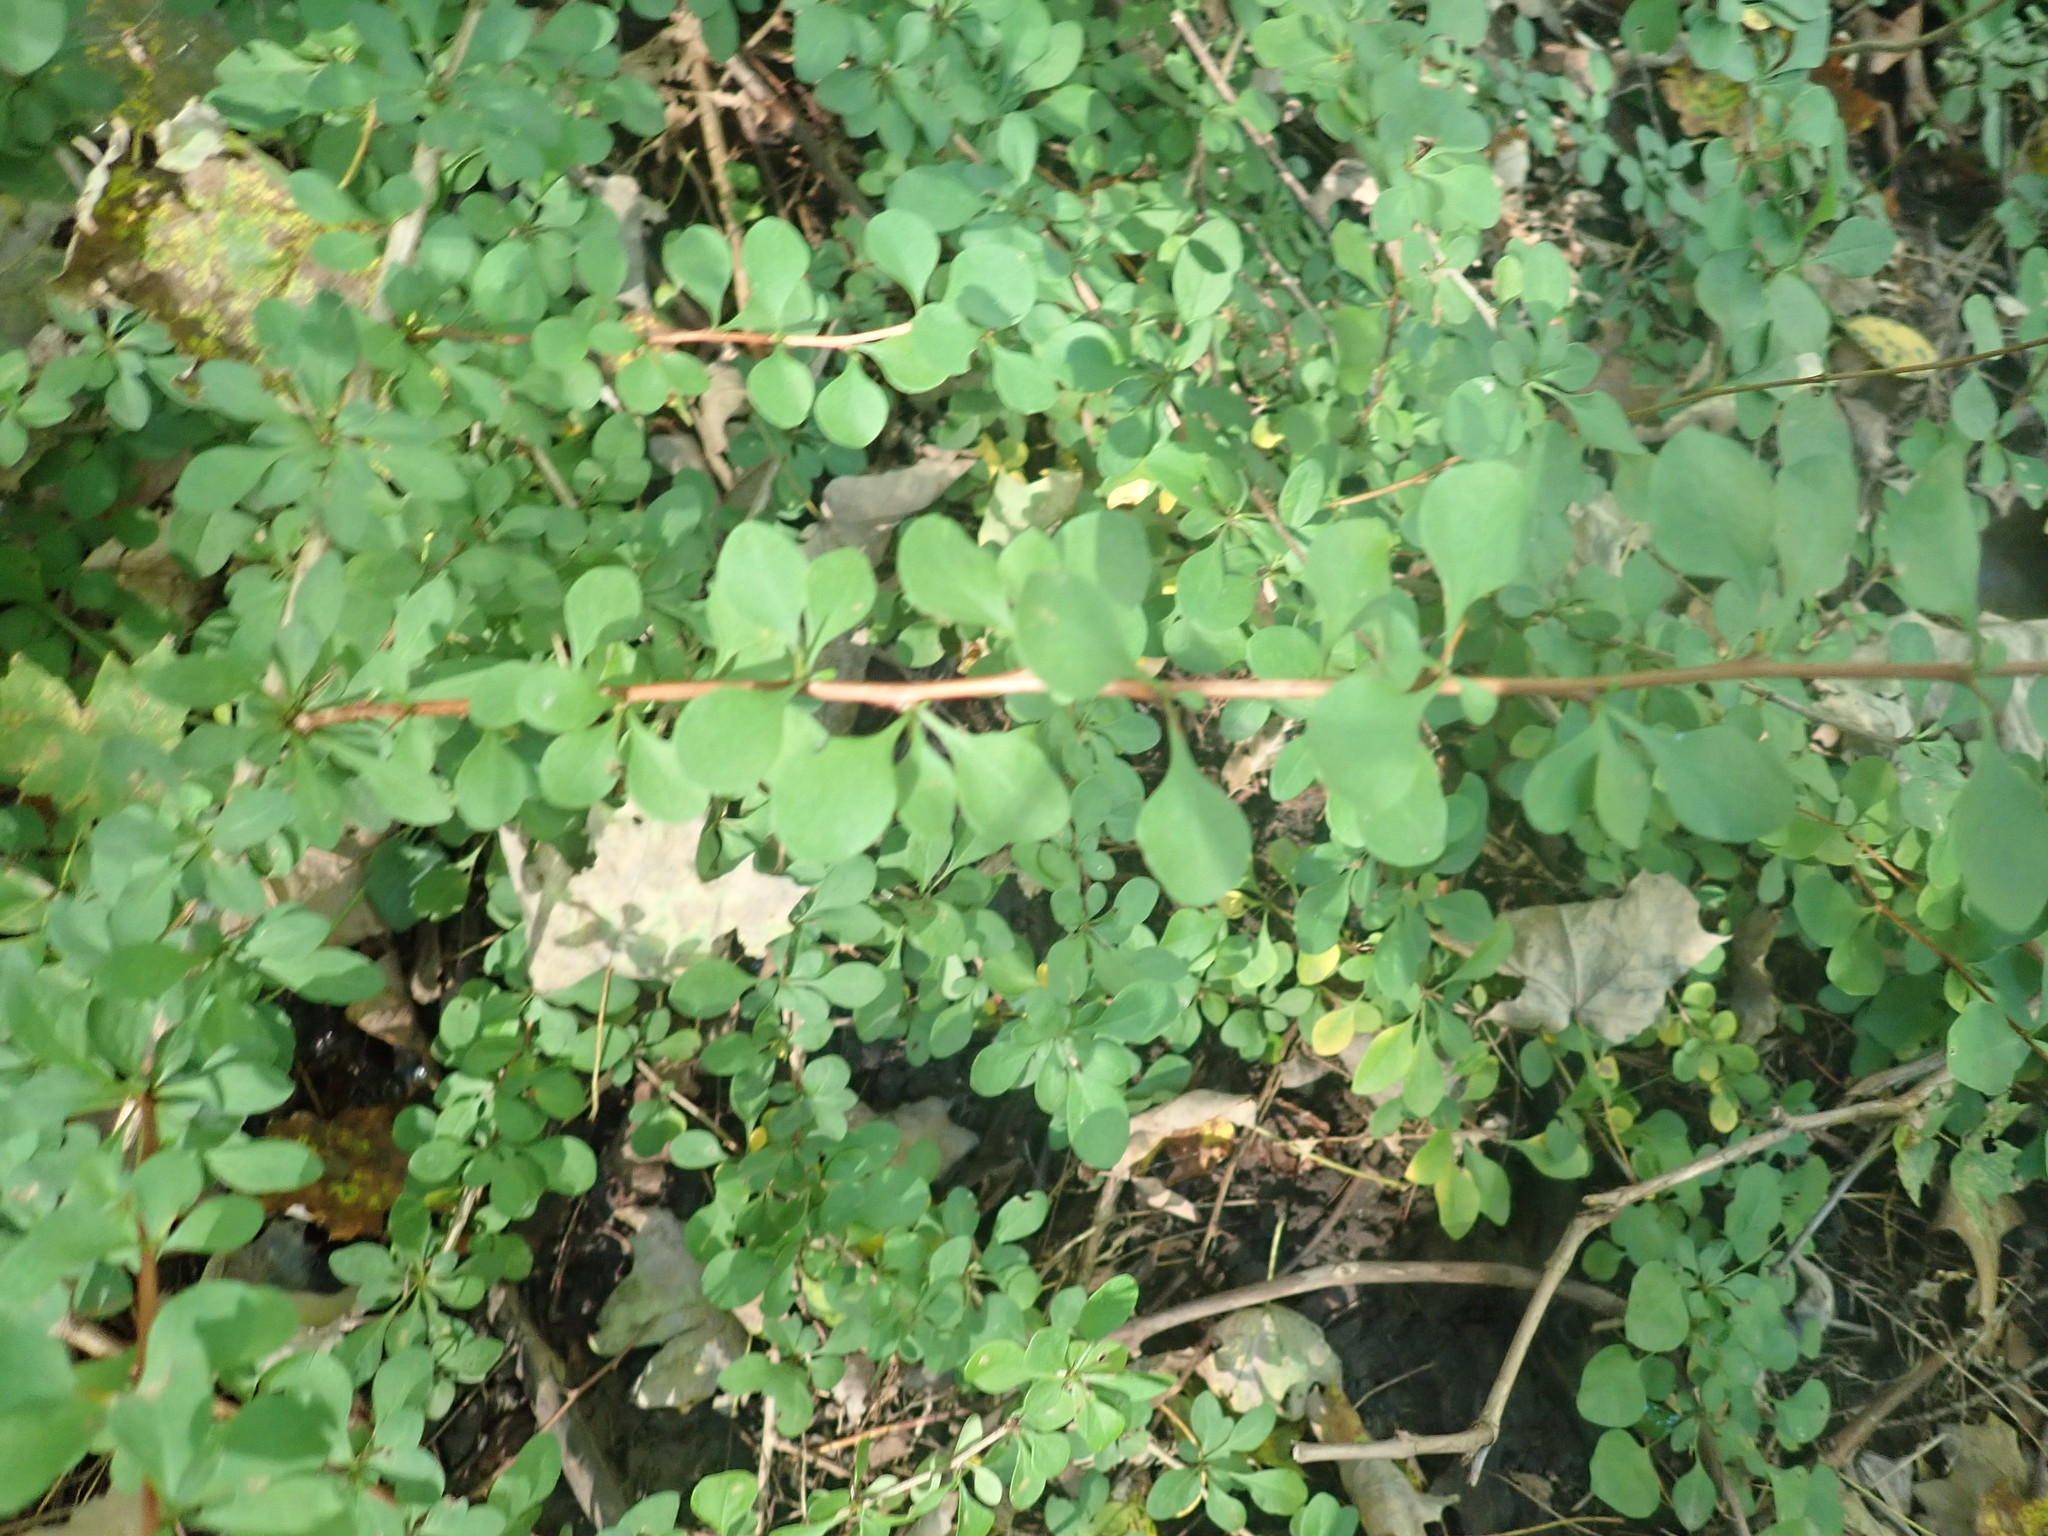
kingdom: Plantae
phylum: Tracheophyta
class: Magnoliopsida
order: Ranunculales
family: Berberidaceae
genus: Berberis
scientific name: Berberis thunbergii
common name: Japanese barberry
